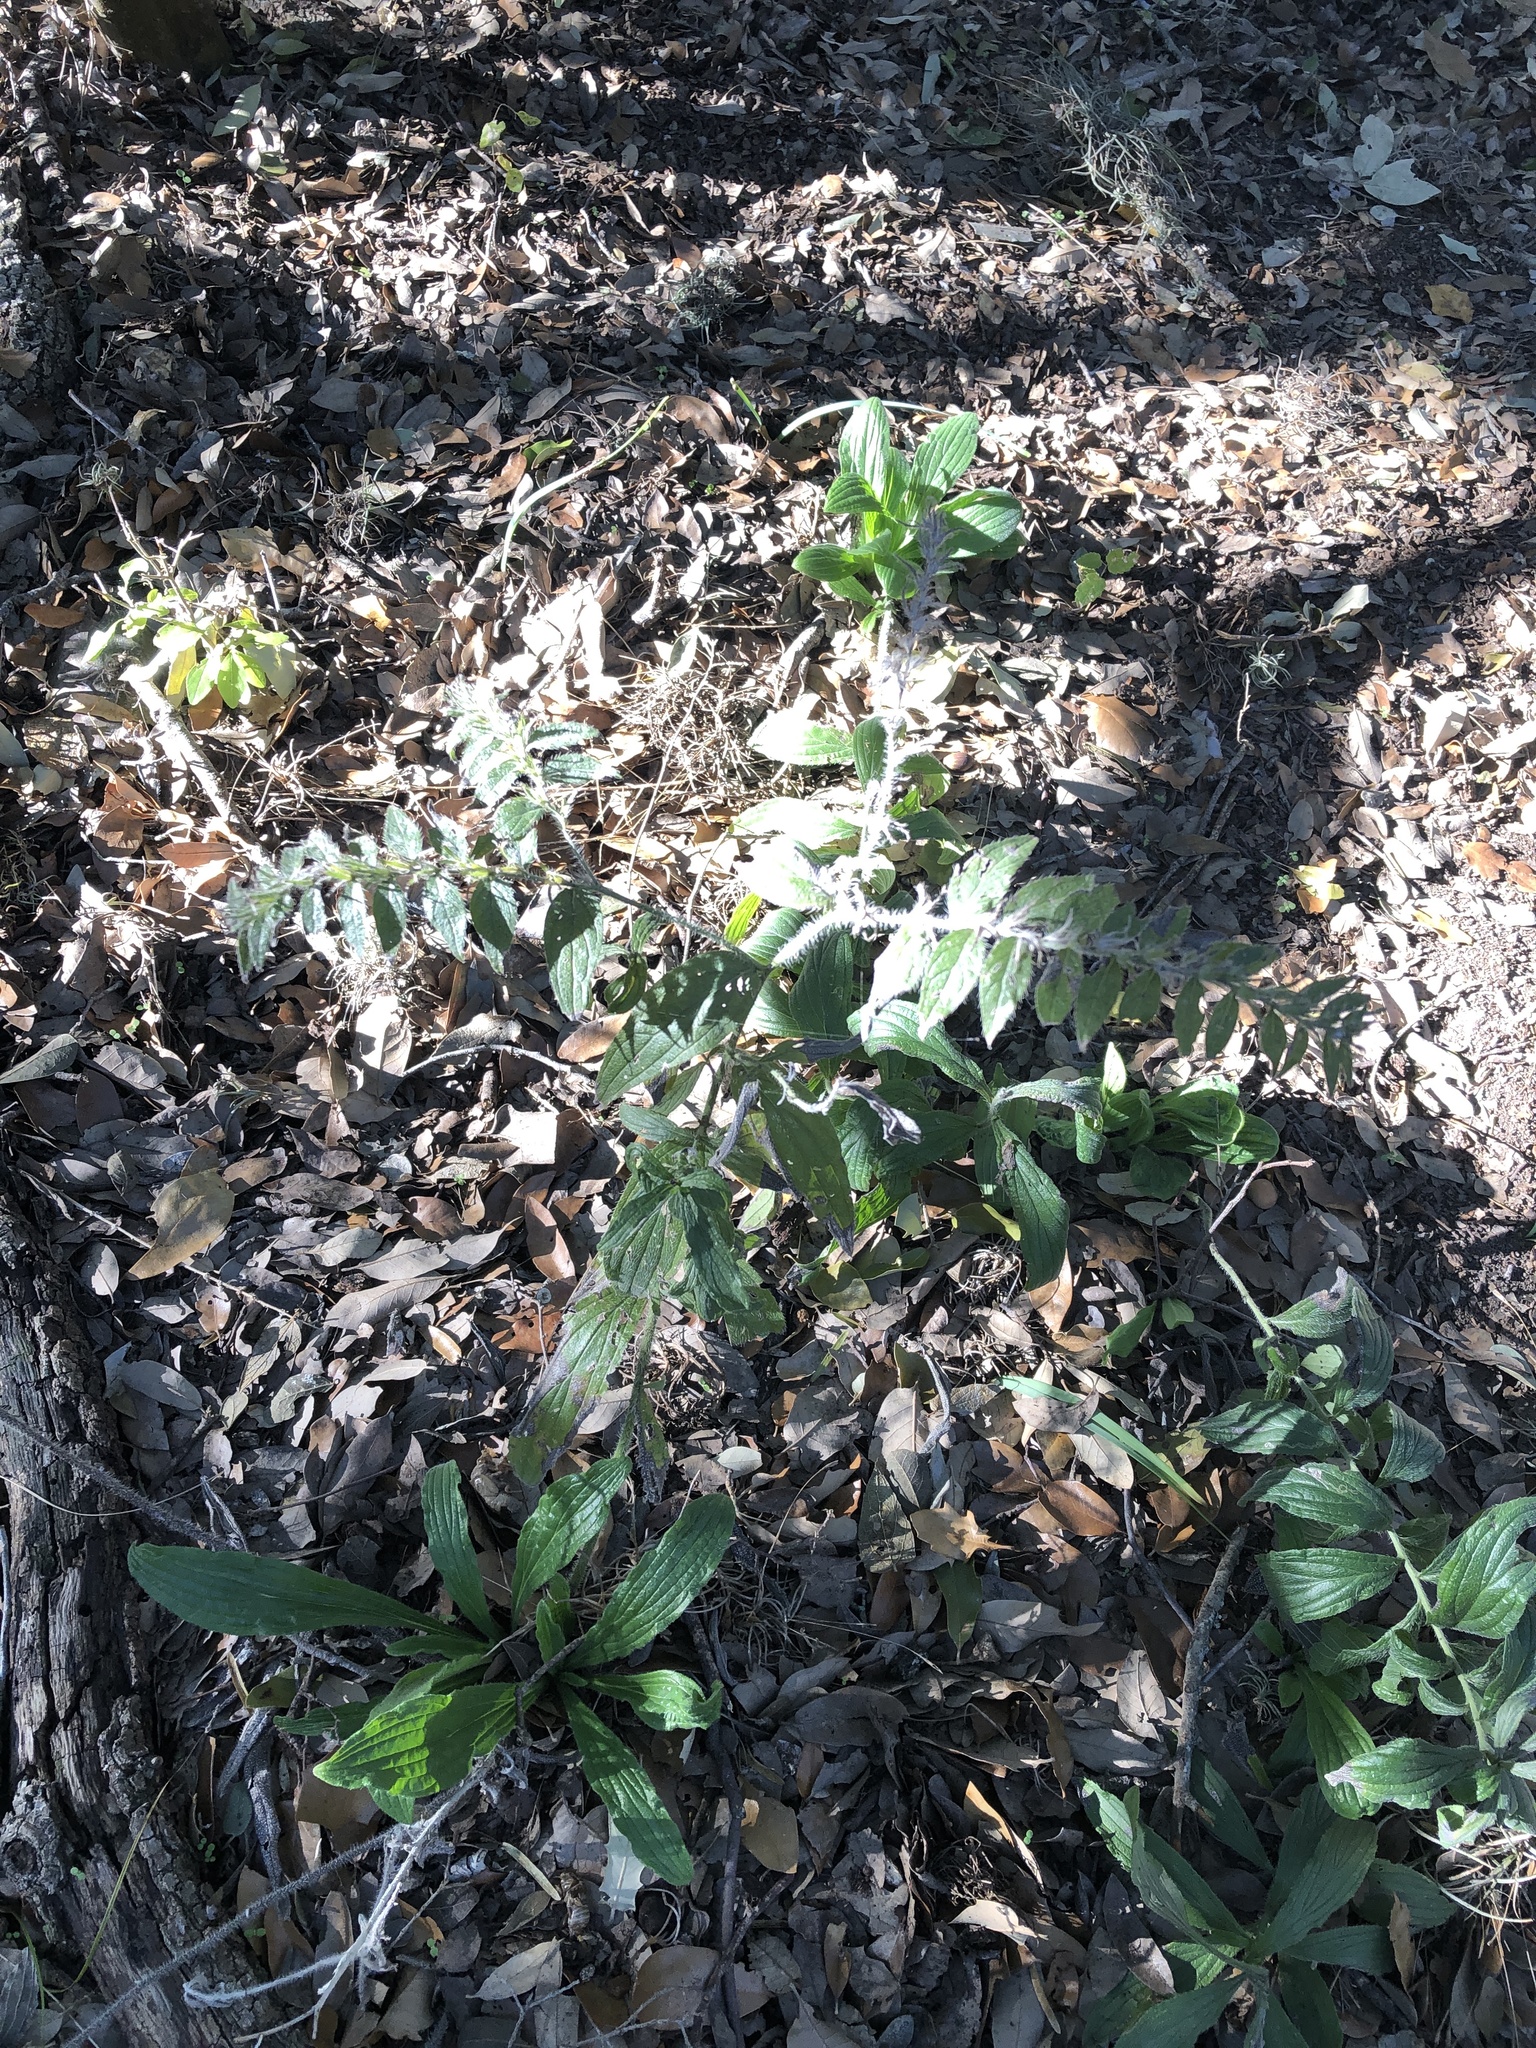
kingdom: Plantae
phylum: Tracheophyta
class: Magnoliopsida
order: Boraginales
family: Boraginaceae
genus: Lithospermum
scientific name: Lithospermum caroliniense
